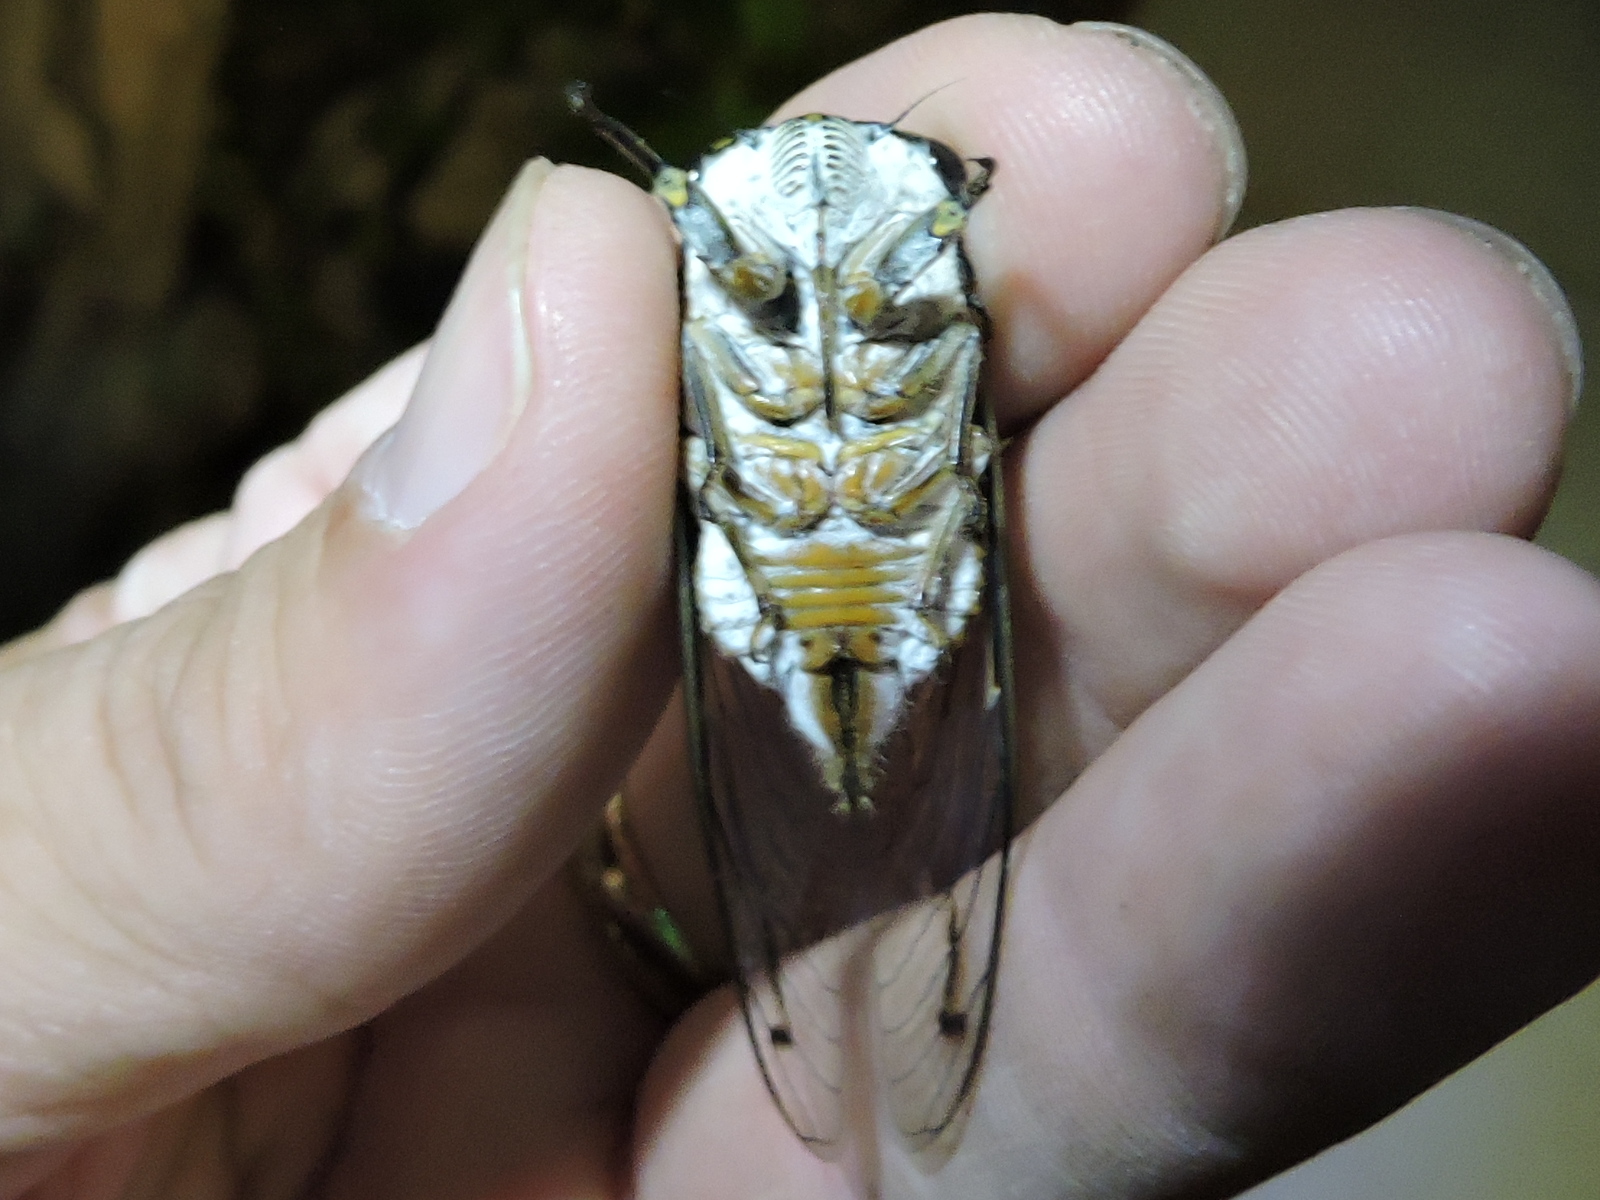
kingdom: Animalia
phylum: Arthropoda
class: Insecta
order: Hemiptera
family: Cicadidae
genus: Hadoa
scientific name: Hadoa texana
